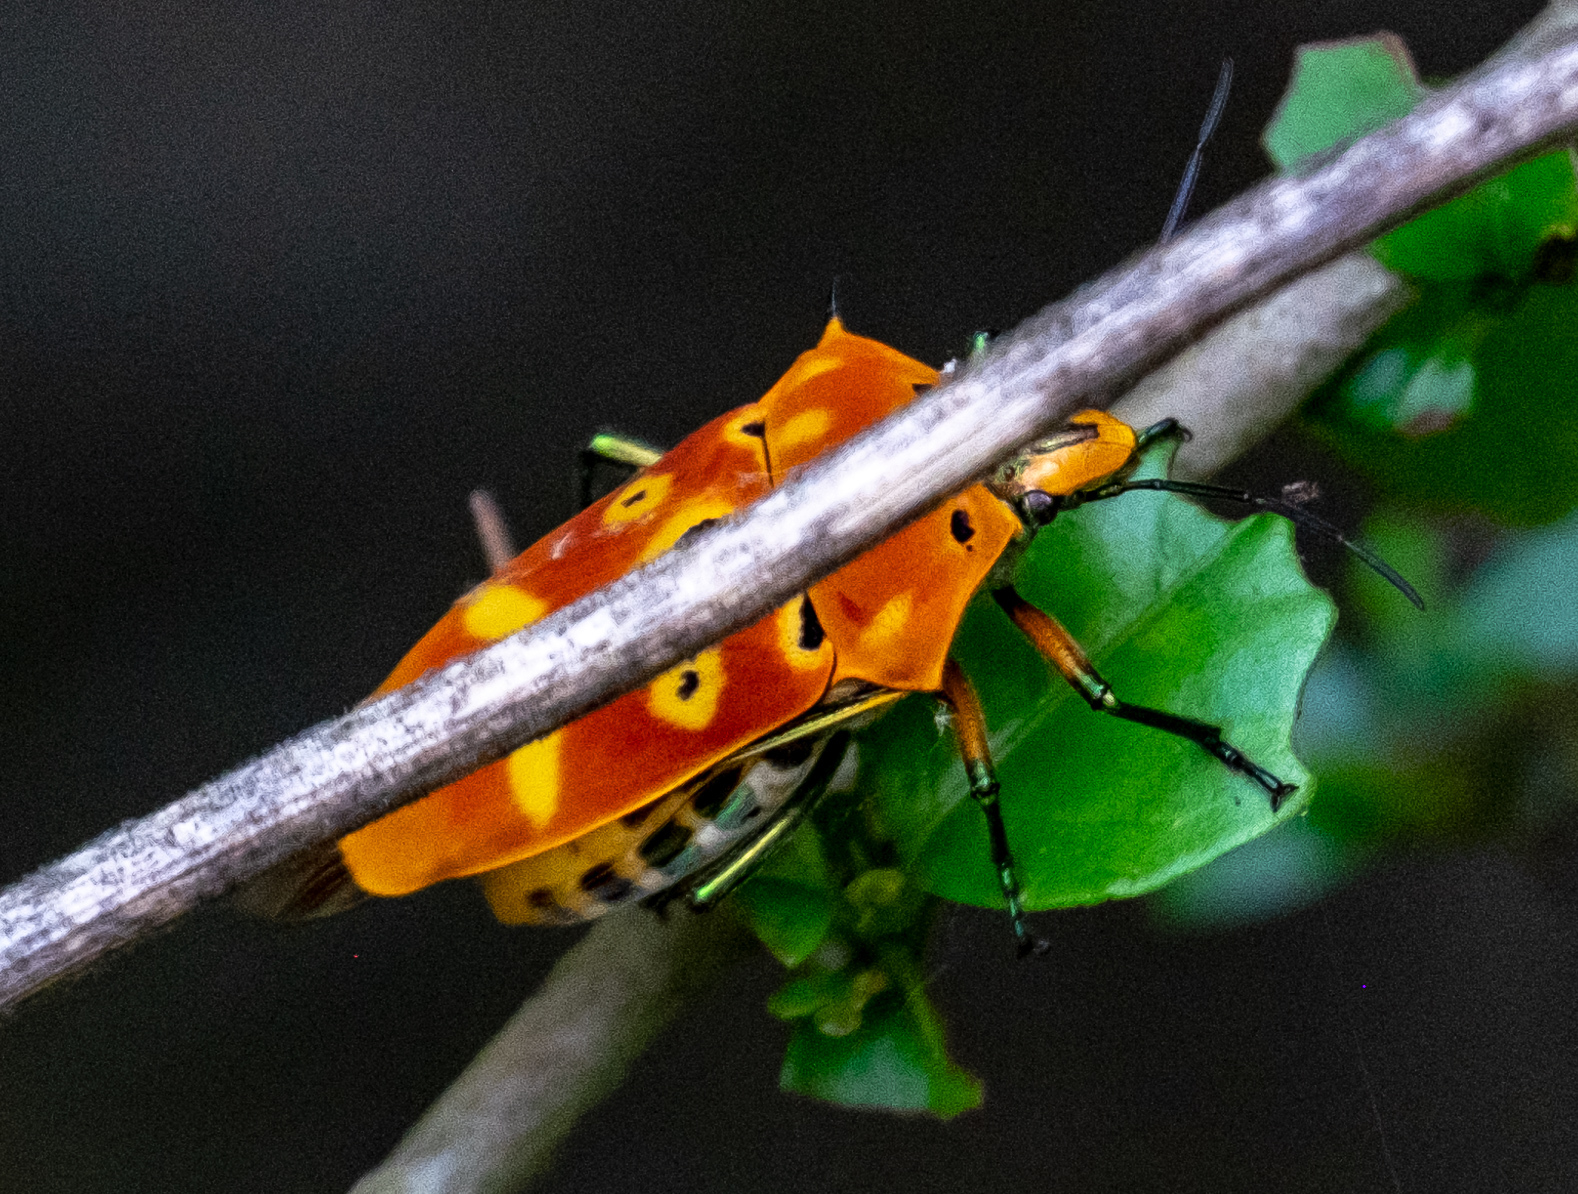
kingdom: Animalia
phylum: Arthropoda
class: Insecta
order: Hemiptera
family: Scutelleridae
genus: Cantao
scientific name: Cantao ocellatus
